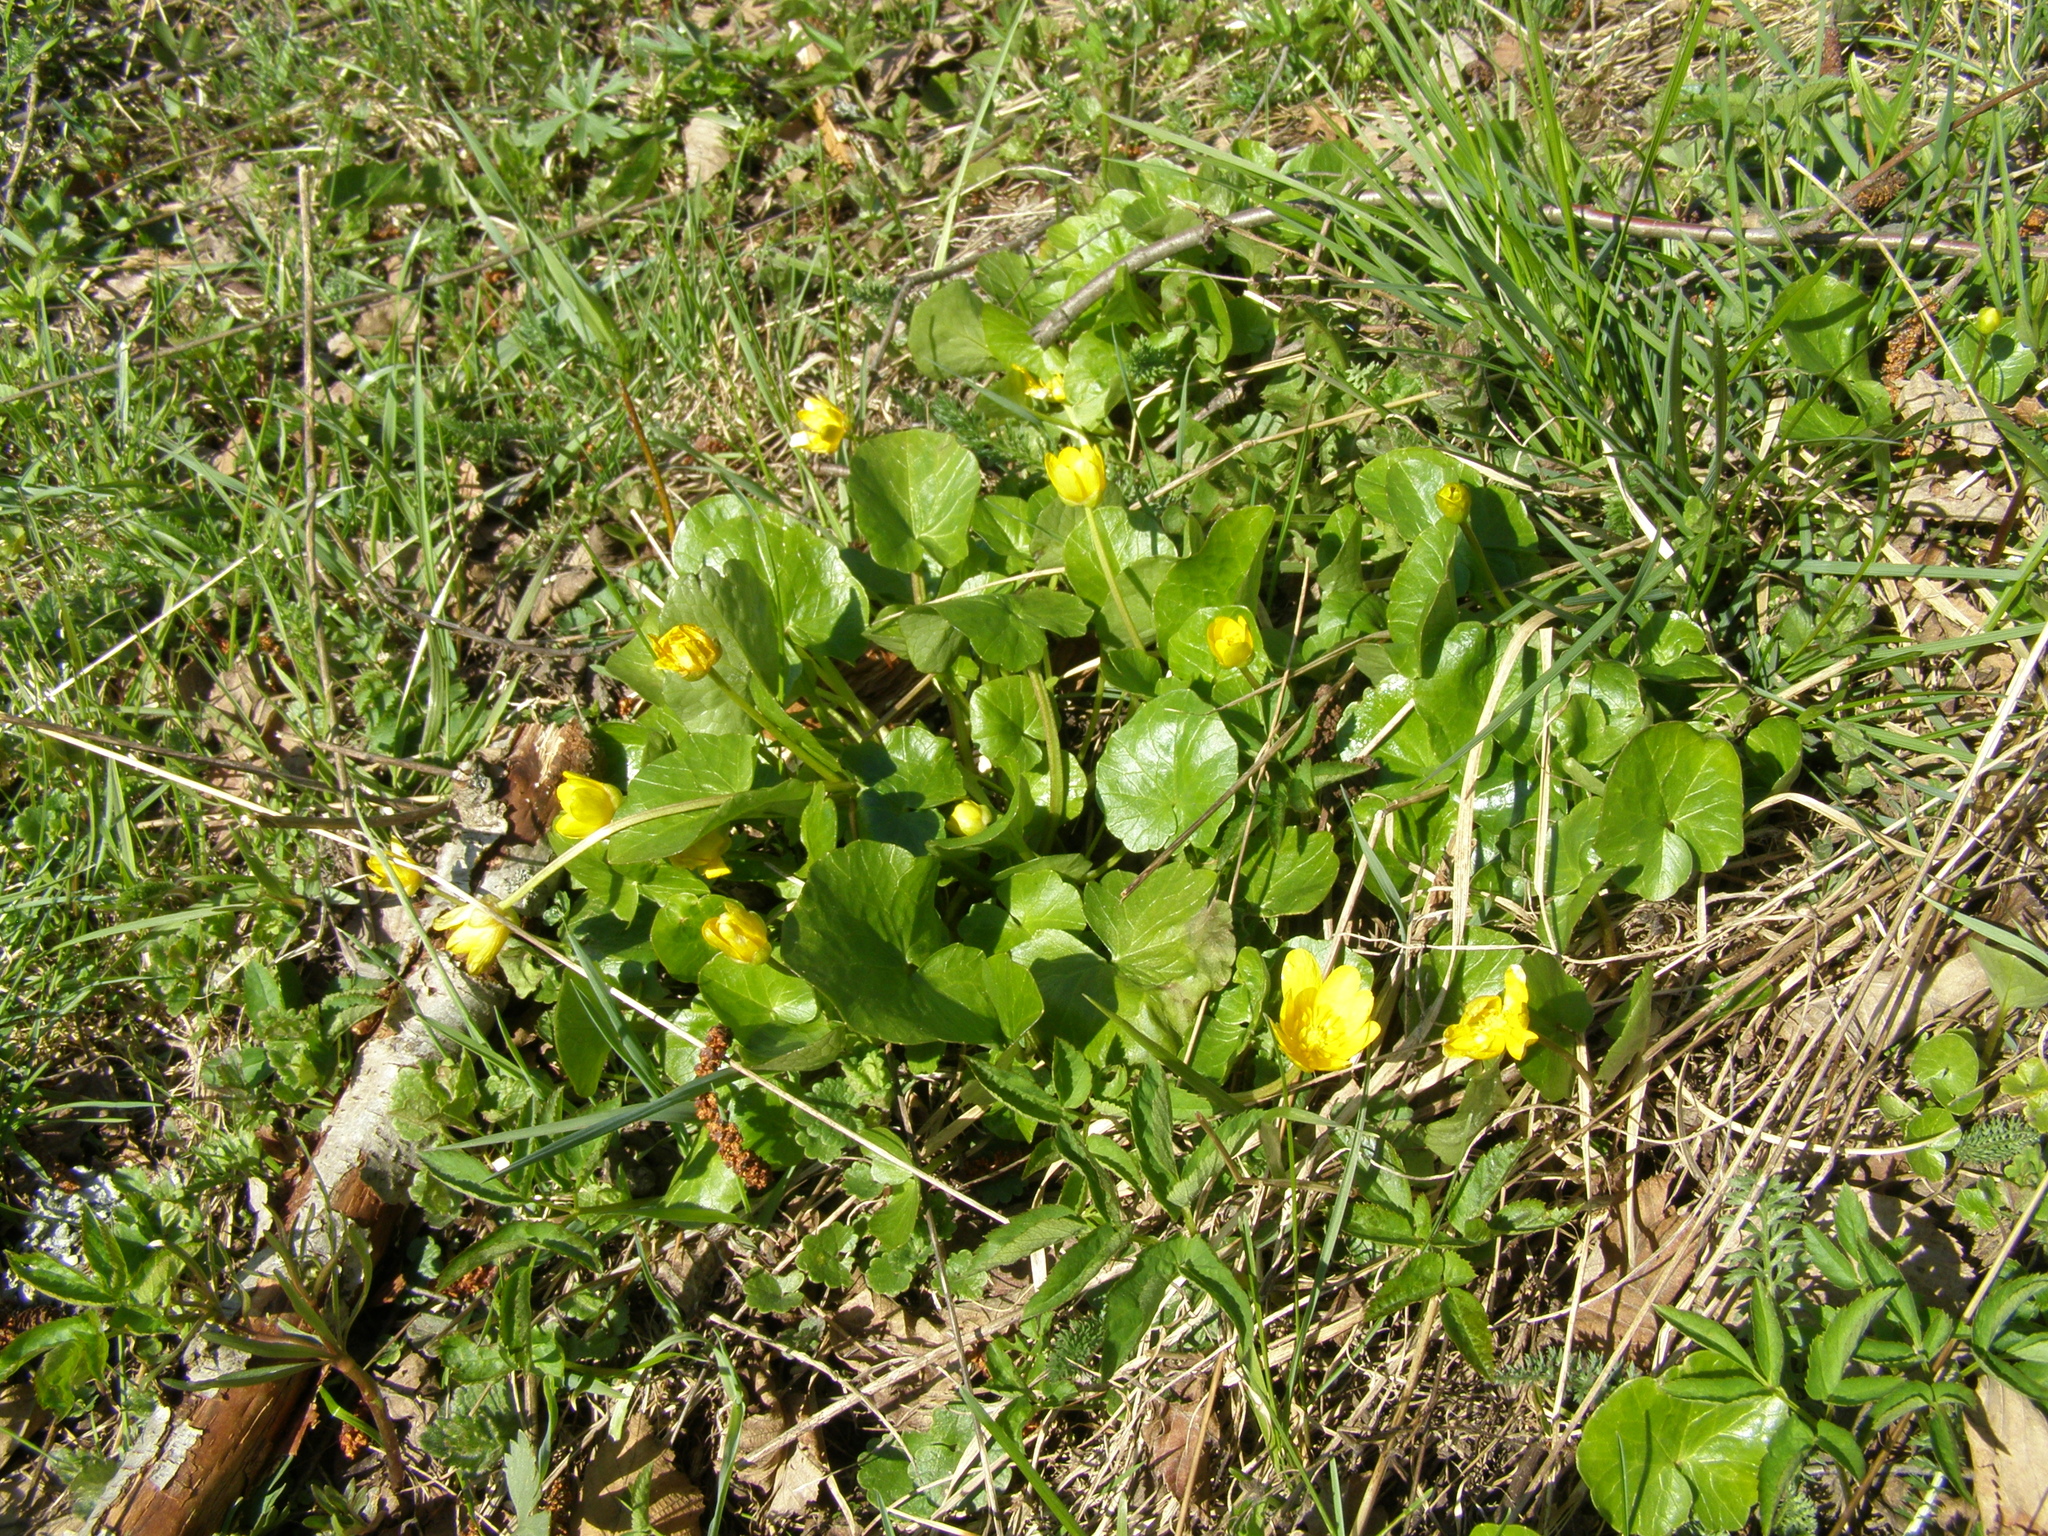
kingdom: Plantae
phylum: Tracheophyta
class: Magnoliopsida
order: Ranunculales
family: Ranunculaceae
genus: Ficaria
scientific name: Ficaria verna
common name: Lesser celandine
